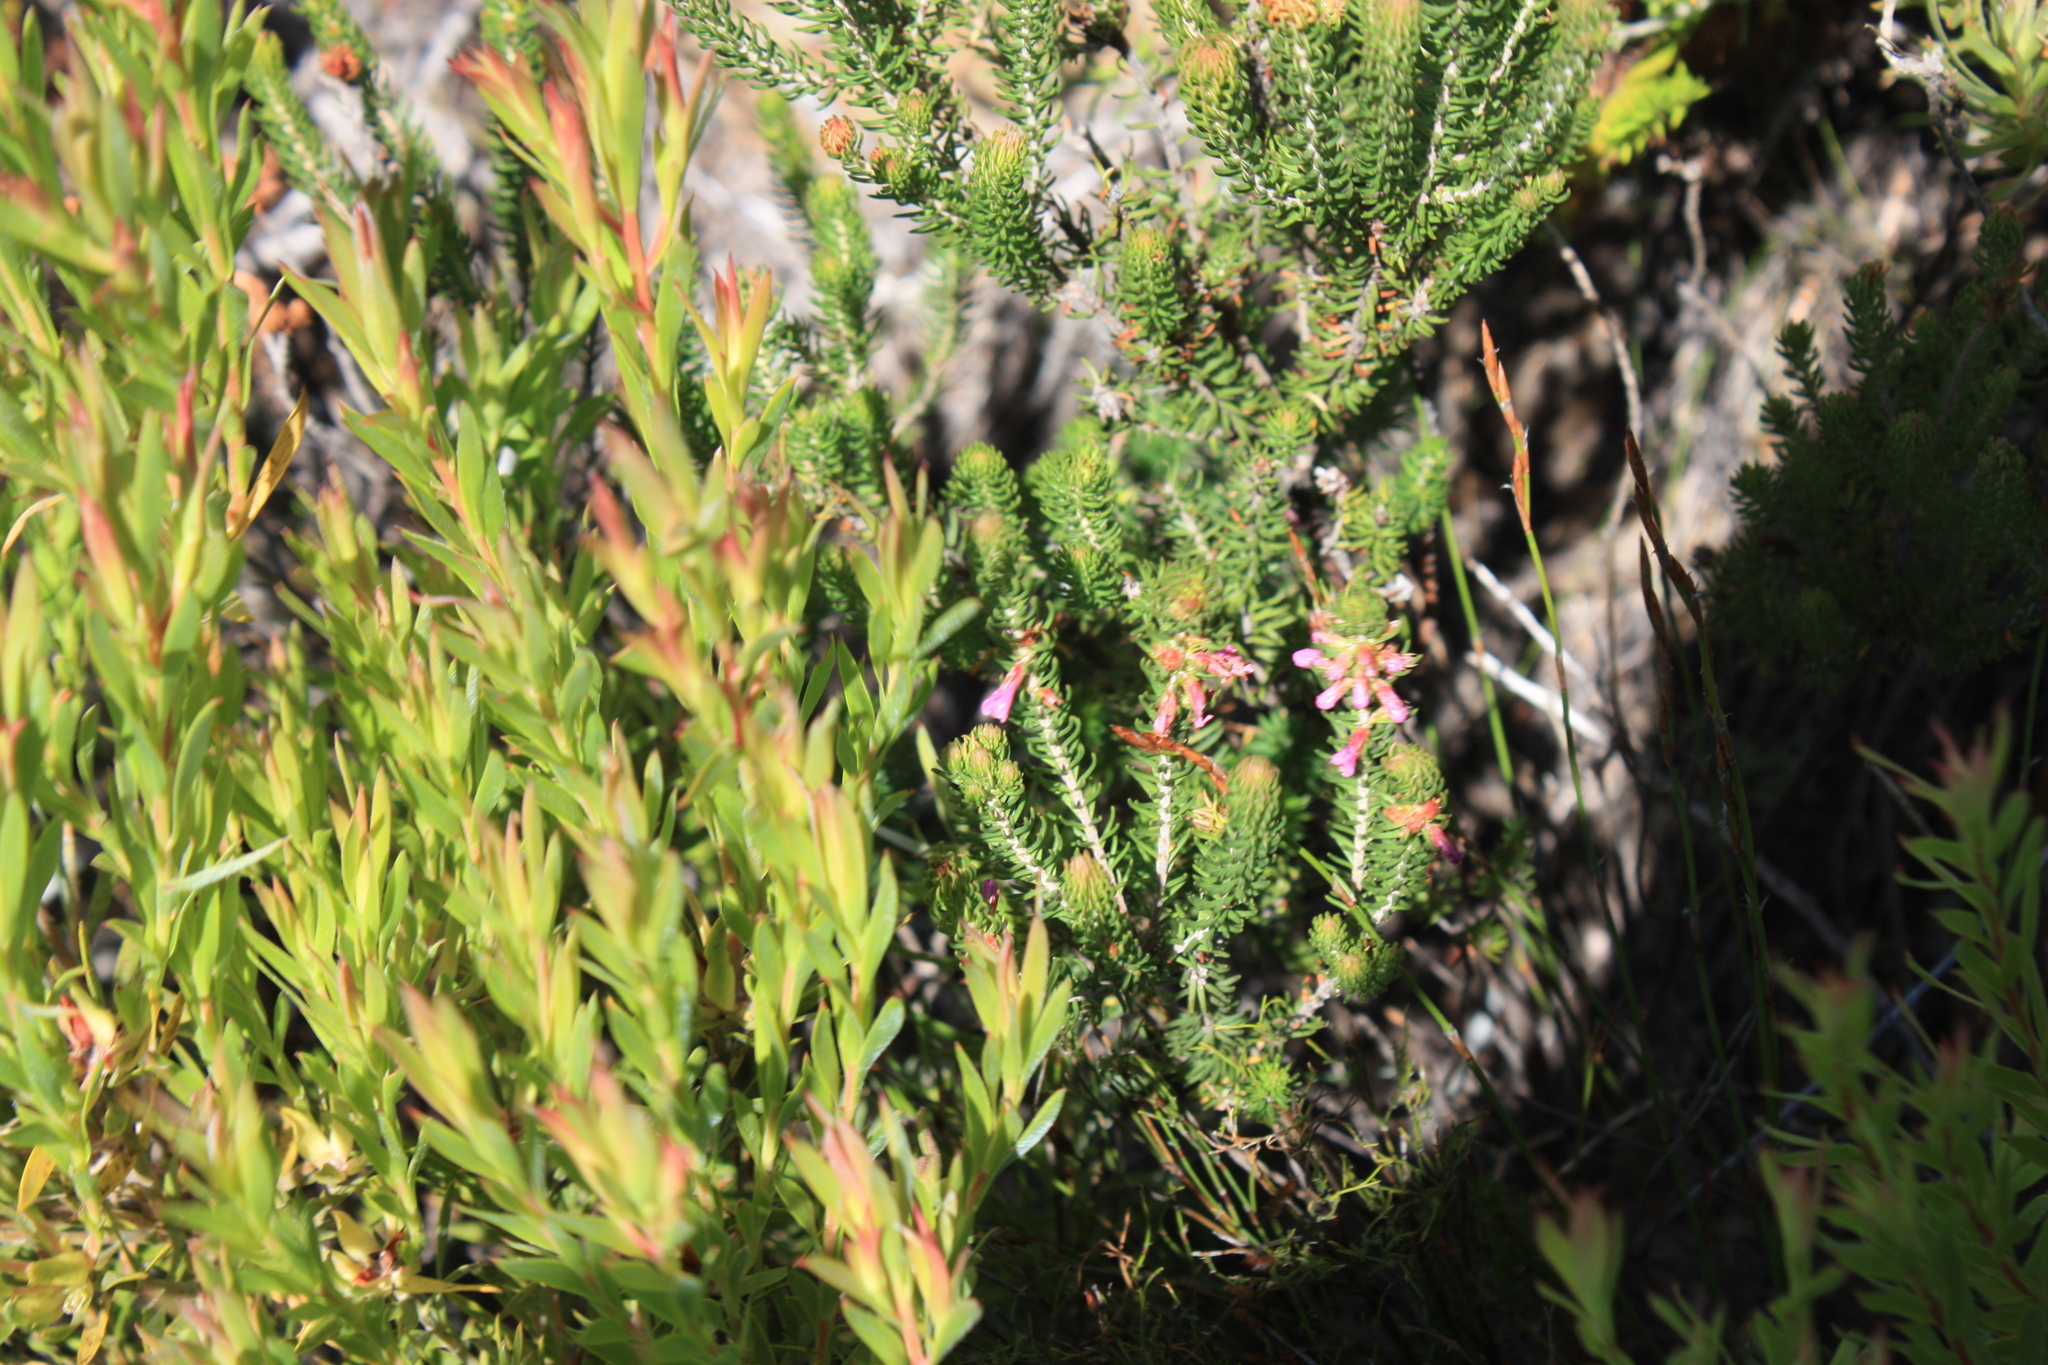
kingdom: Plantae
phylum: Tracheophyta
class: Magnoliopsida
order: Ericales
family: Ericaceae
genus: Erica
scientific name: Erica abietina
